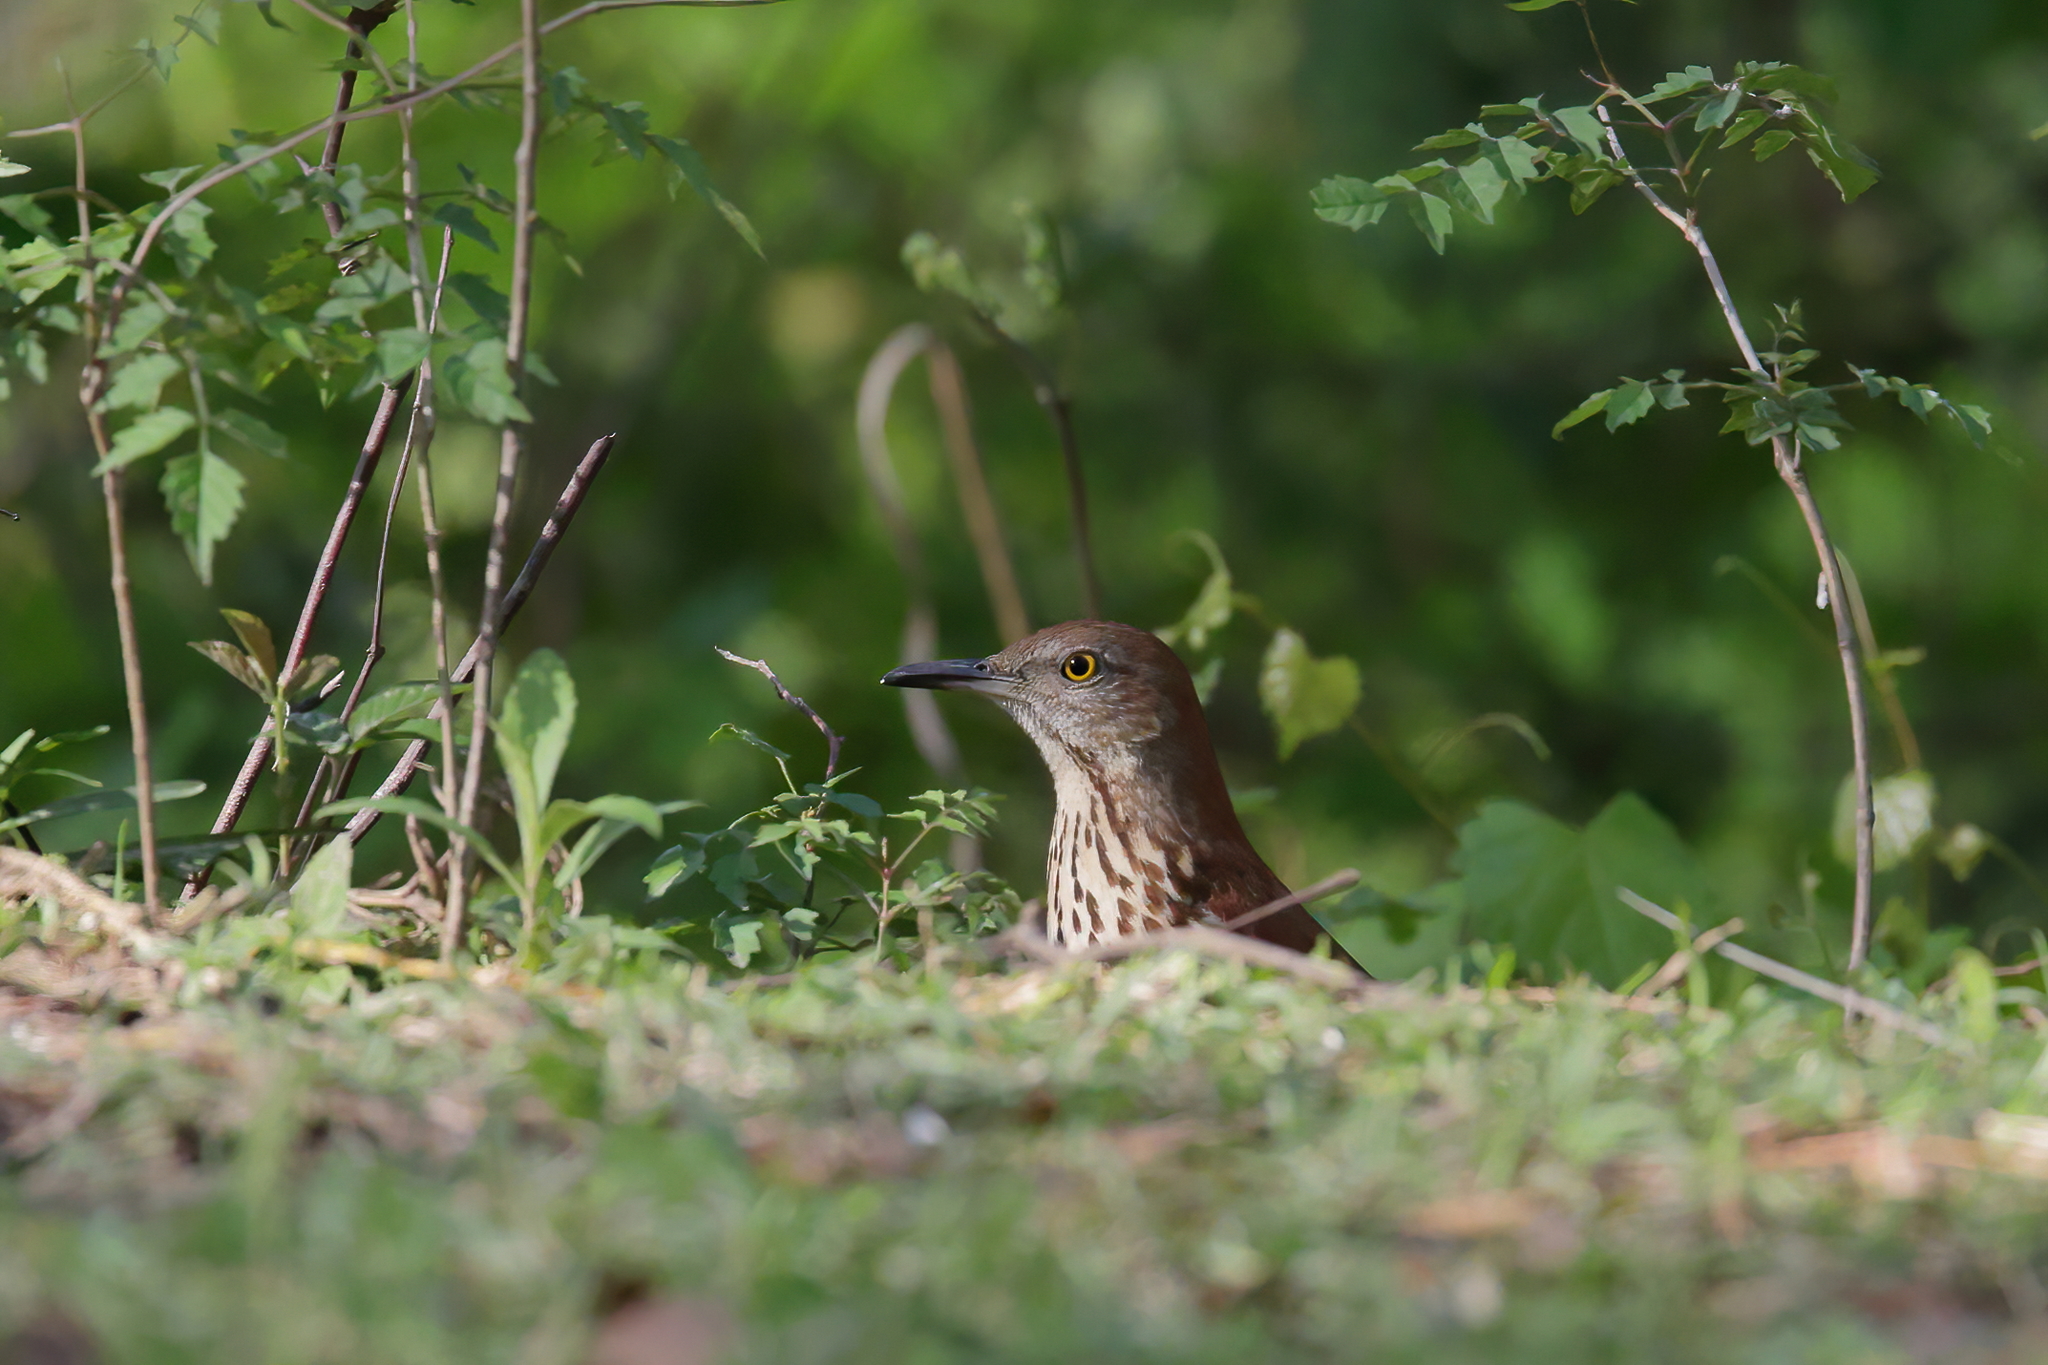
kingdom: Animalia
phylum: Chordata
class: Aves
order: Passeriformes
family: Mimidae
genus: Toxostoma
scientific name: Toxostoma rufum
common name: Brown thrasher
